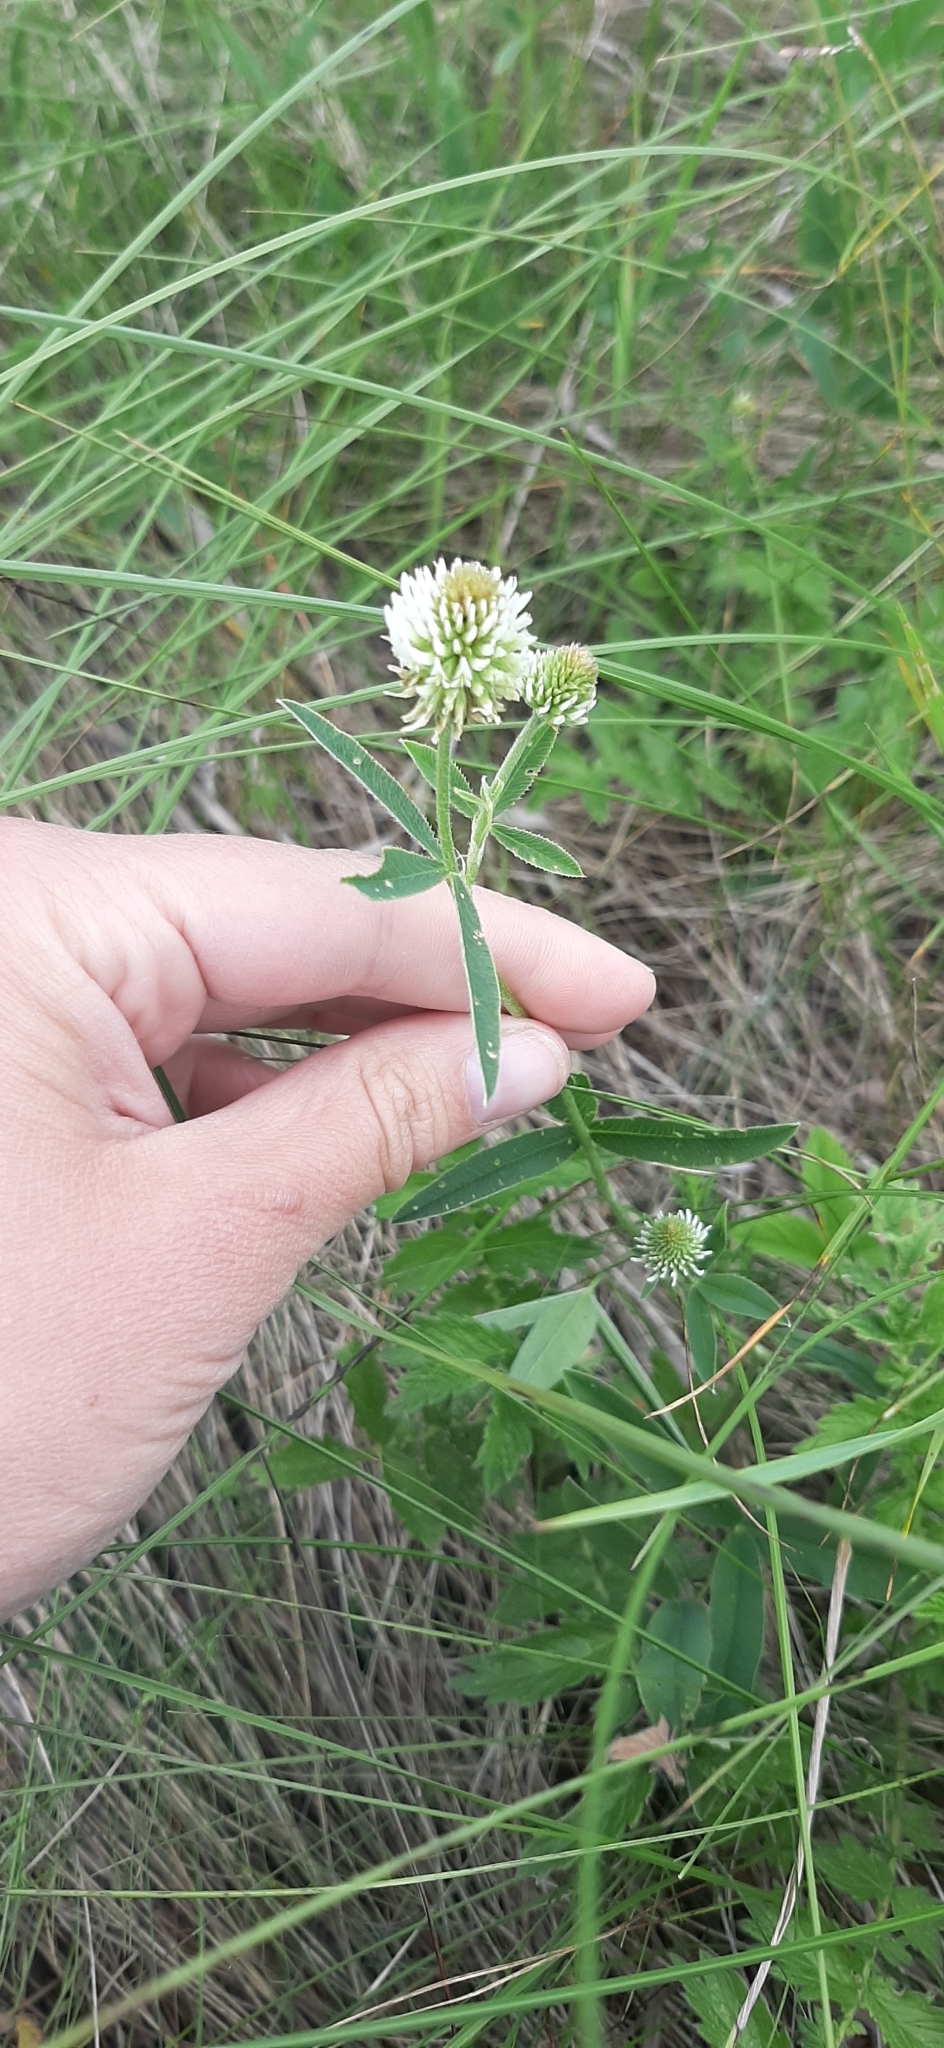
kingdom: Plantae
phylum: Tracheophyta
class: Magnoliopsida
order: Fabales
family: Fabaceae
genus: Trifolium
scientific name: Trifolium montanum
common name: Mountain clover
